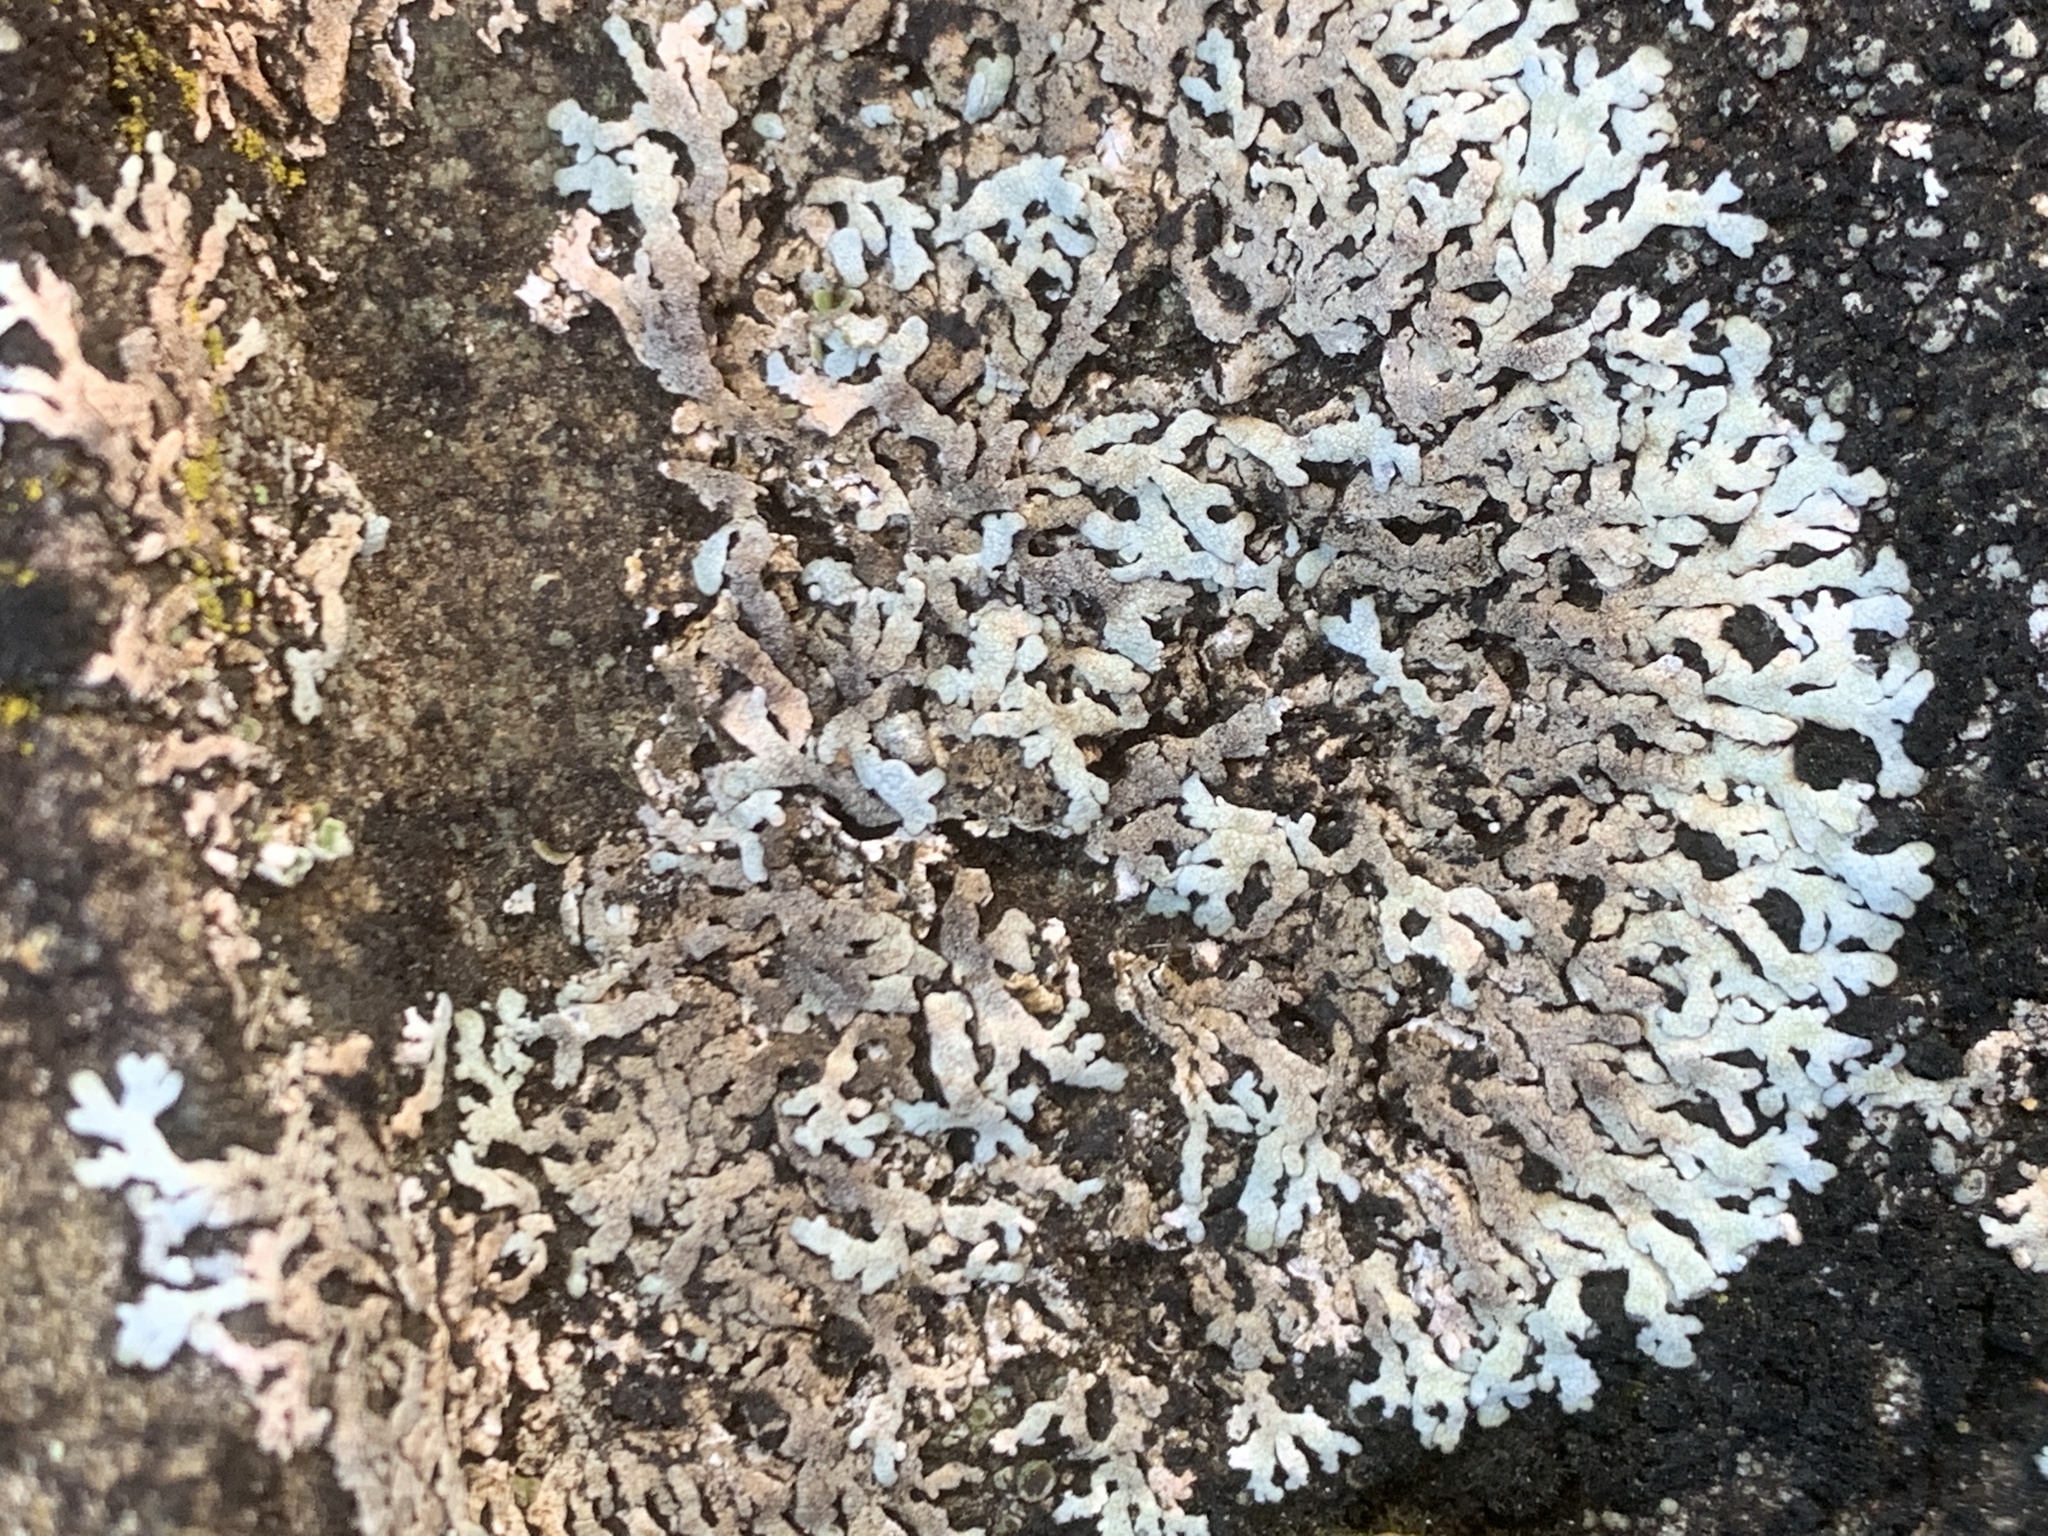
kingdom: Fungi
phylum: Ascomycota
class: Lecanoromycetes
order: Caliciales
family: Physciaceae
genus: Physcia
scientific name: Physcia caesia
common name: Blue-gray rosette lichen
